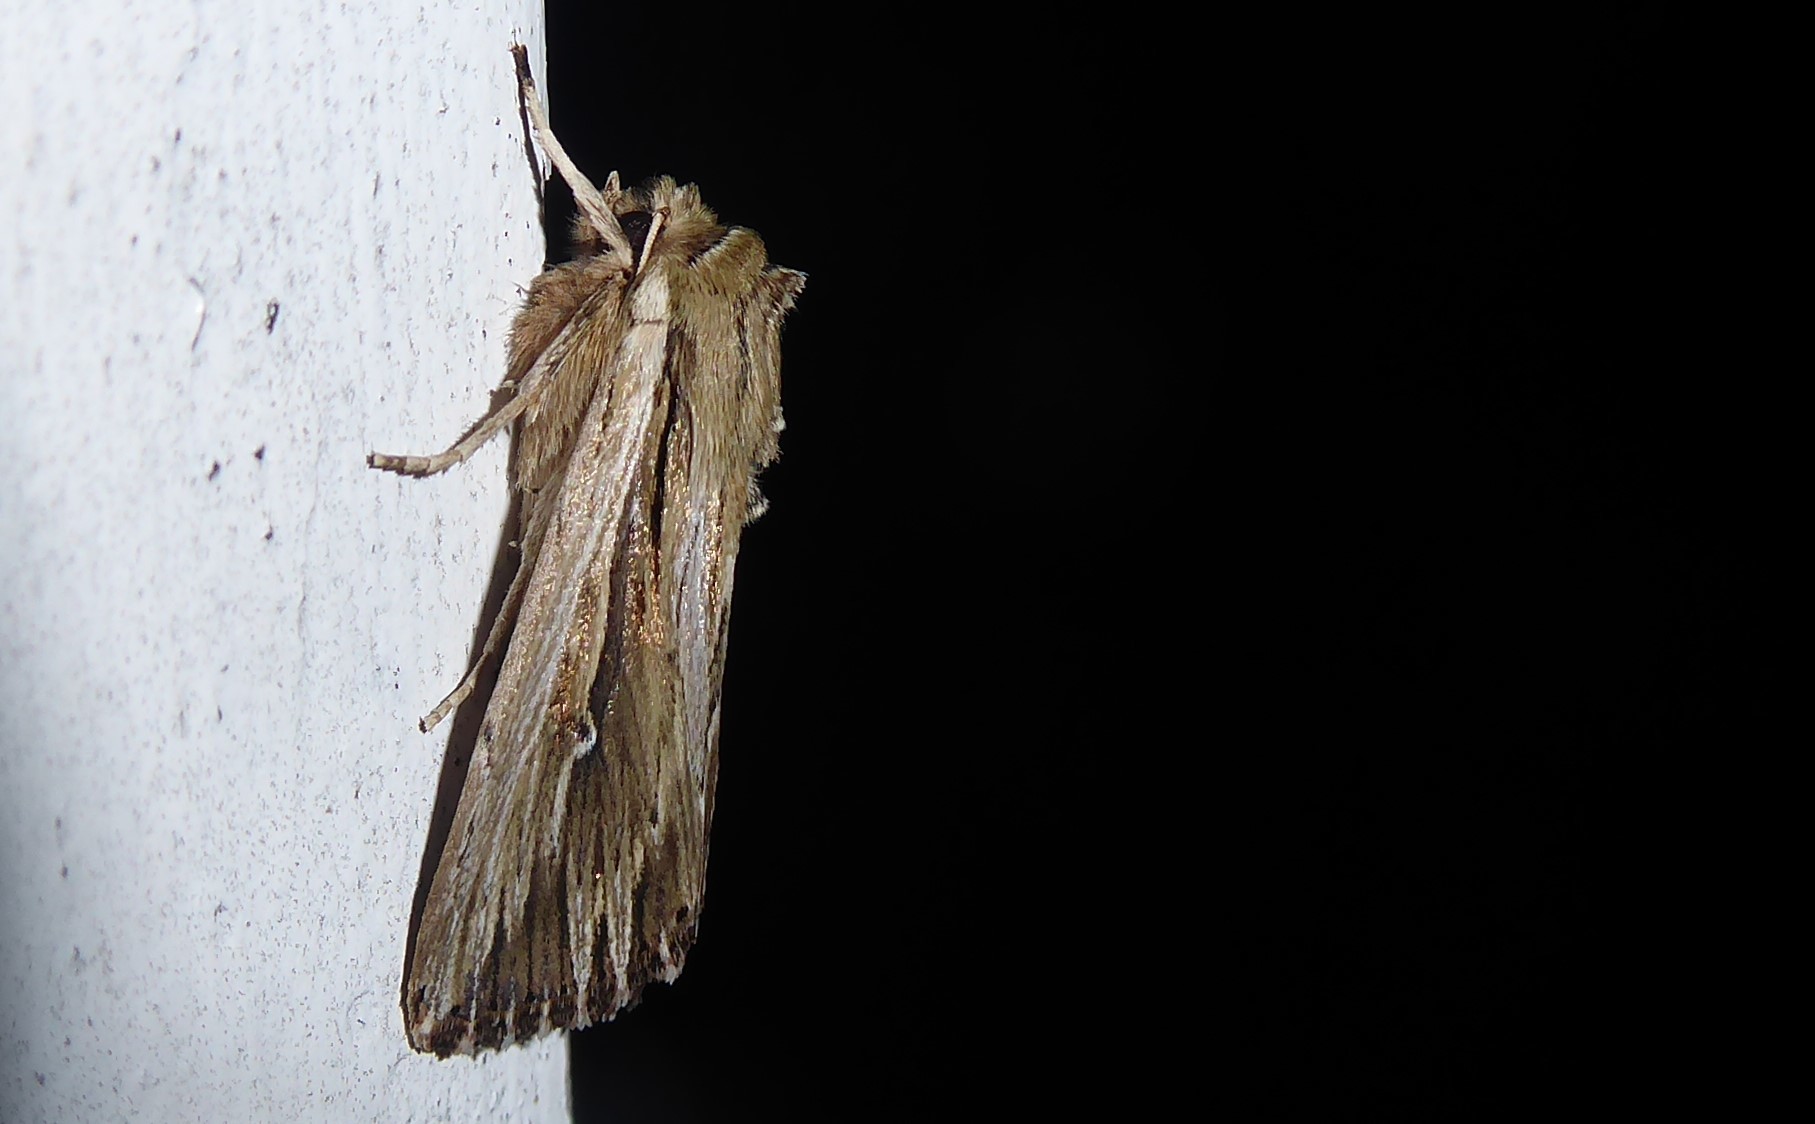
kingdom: Animalia
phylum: Arthropoda
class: Insecta
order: Lepidoptera
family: Noctuidae
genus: Persectania
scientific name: Persectania aversa
